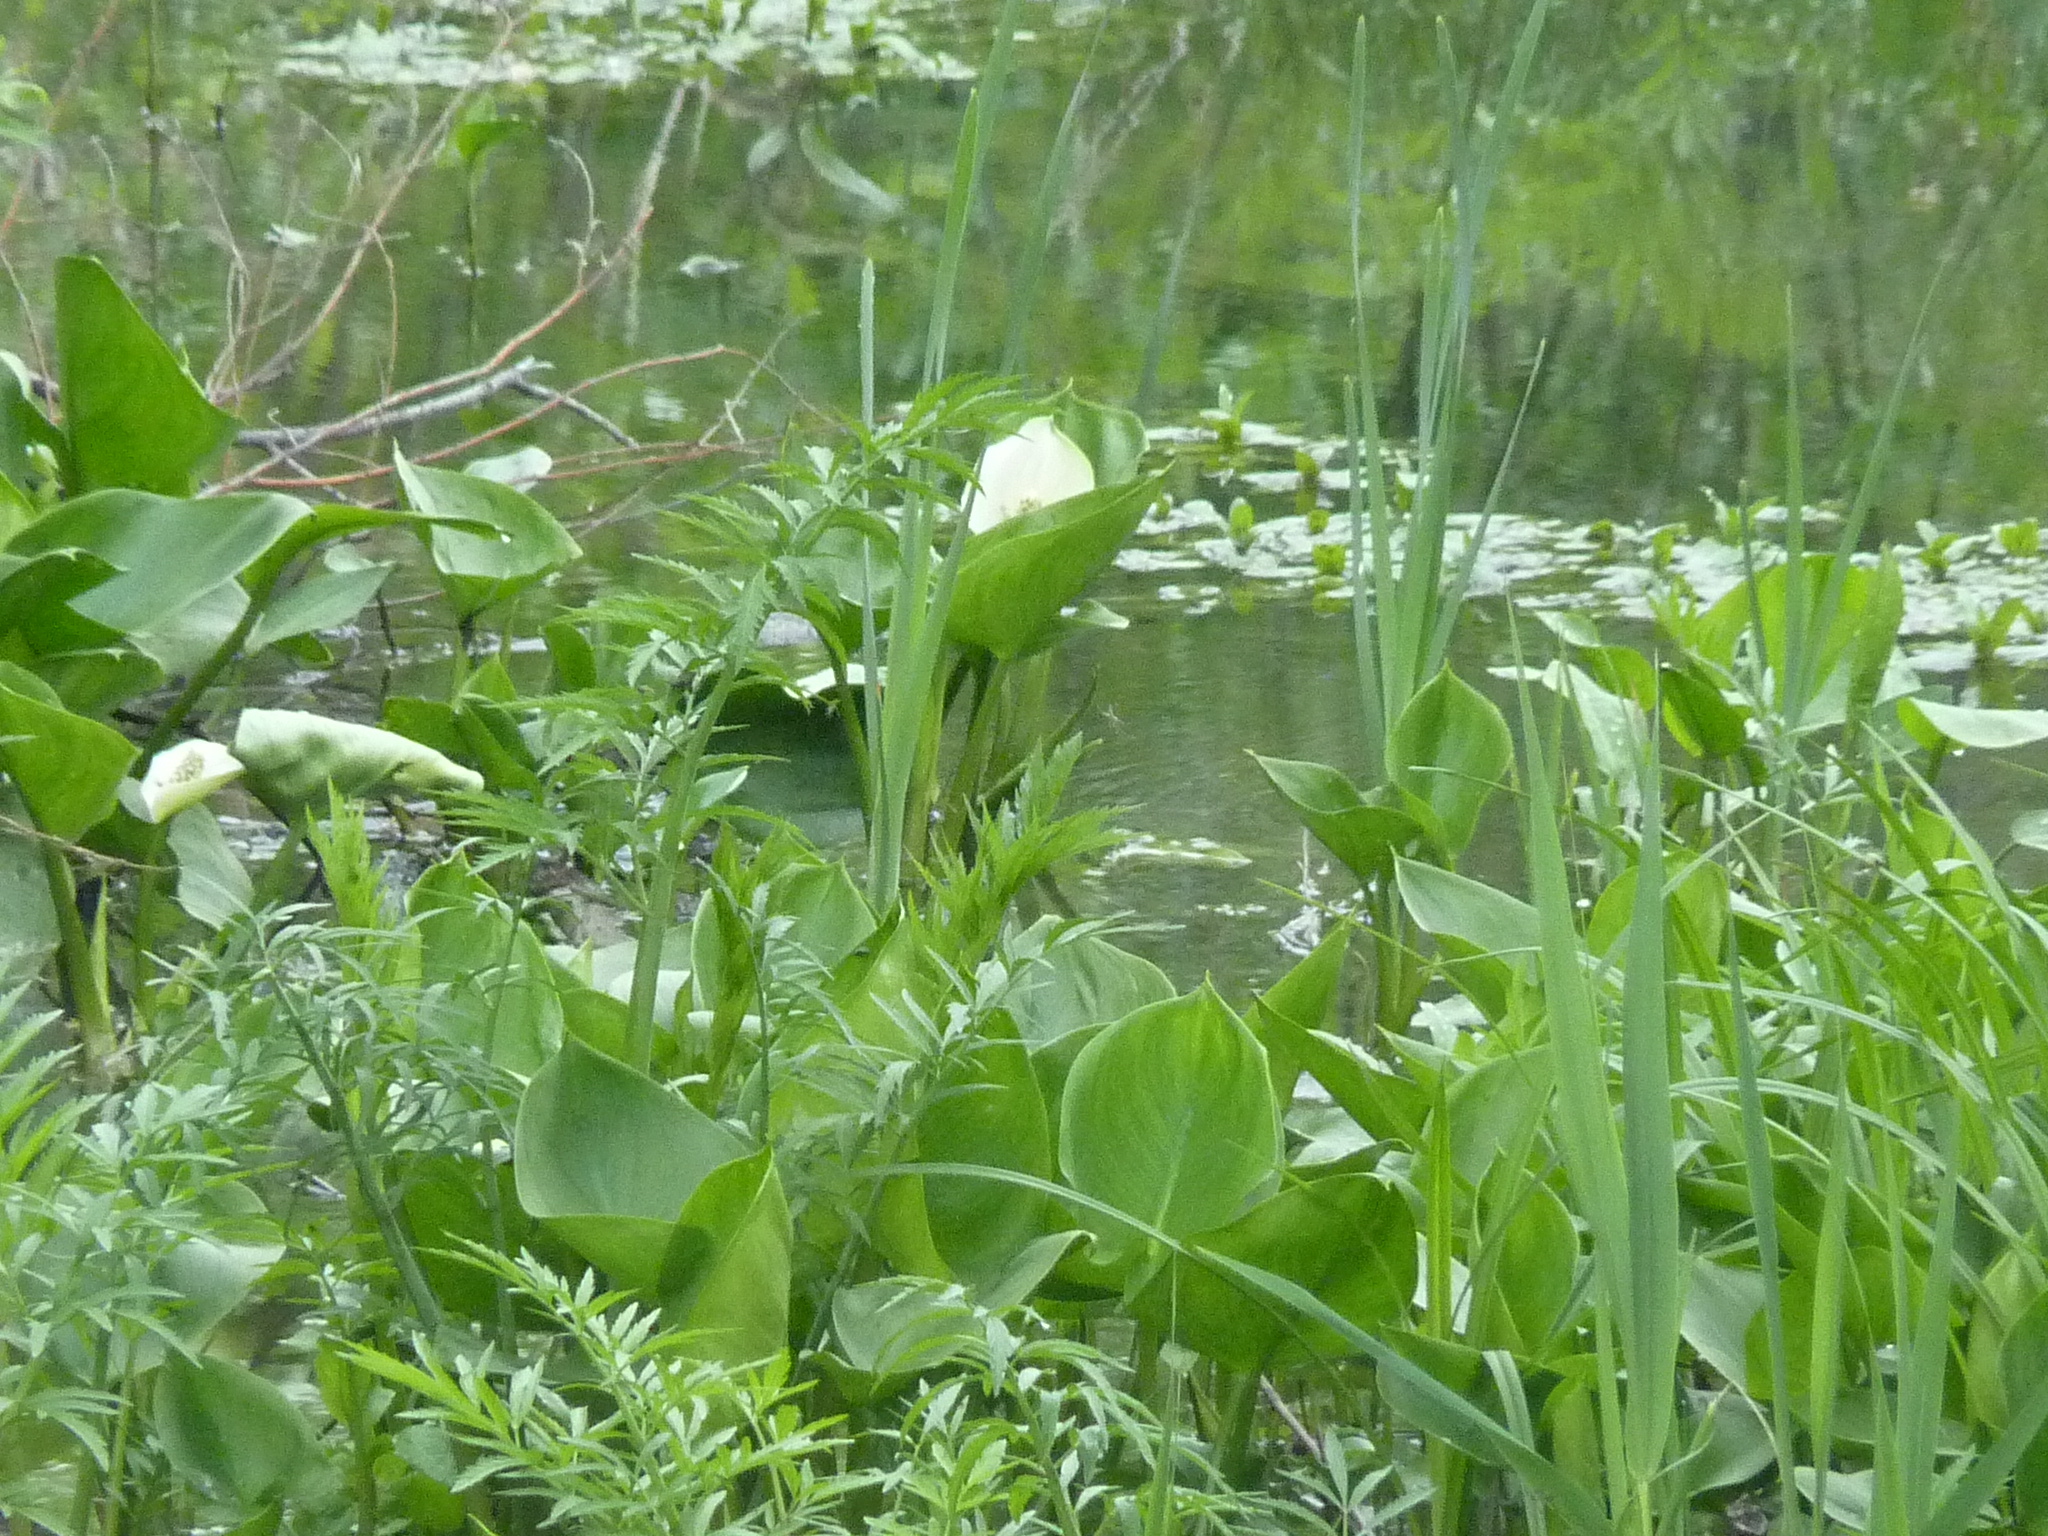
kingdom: Plantae
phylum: Tracheophyta
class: Liliopsida
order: Alismatales
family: Araceae
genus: Calla
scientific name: Calla palustris
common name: Bog arum
